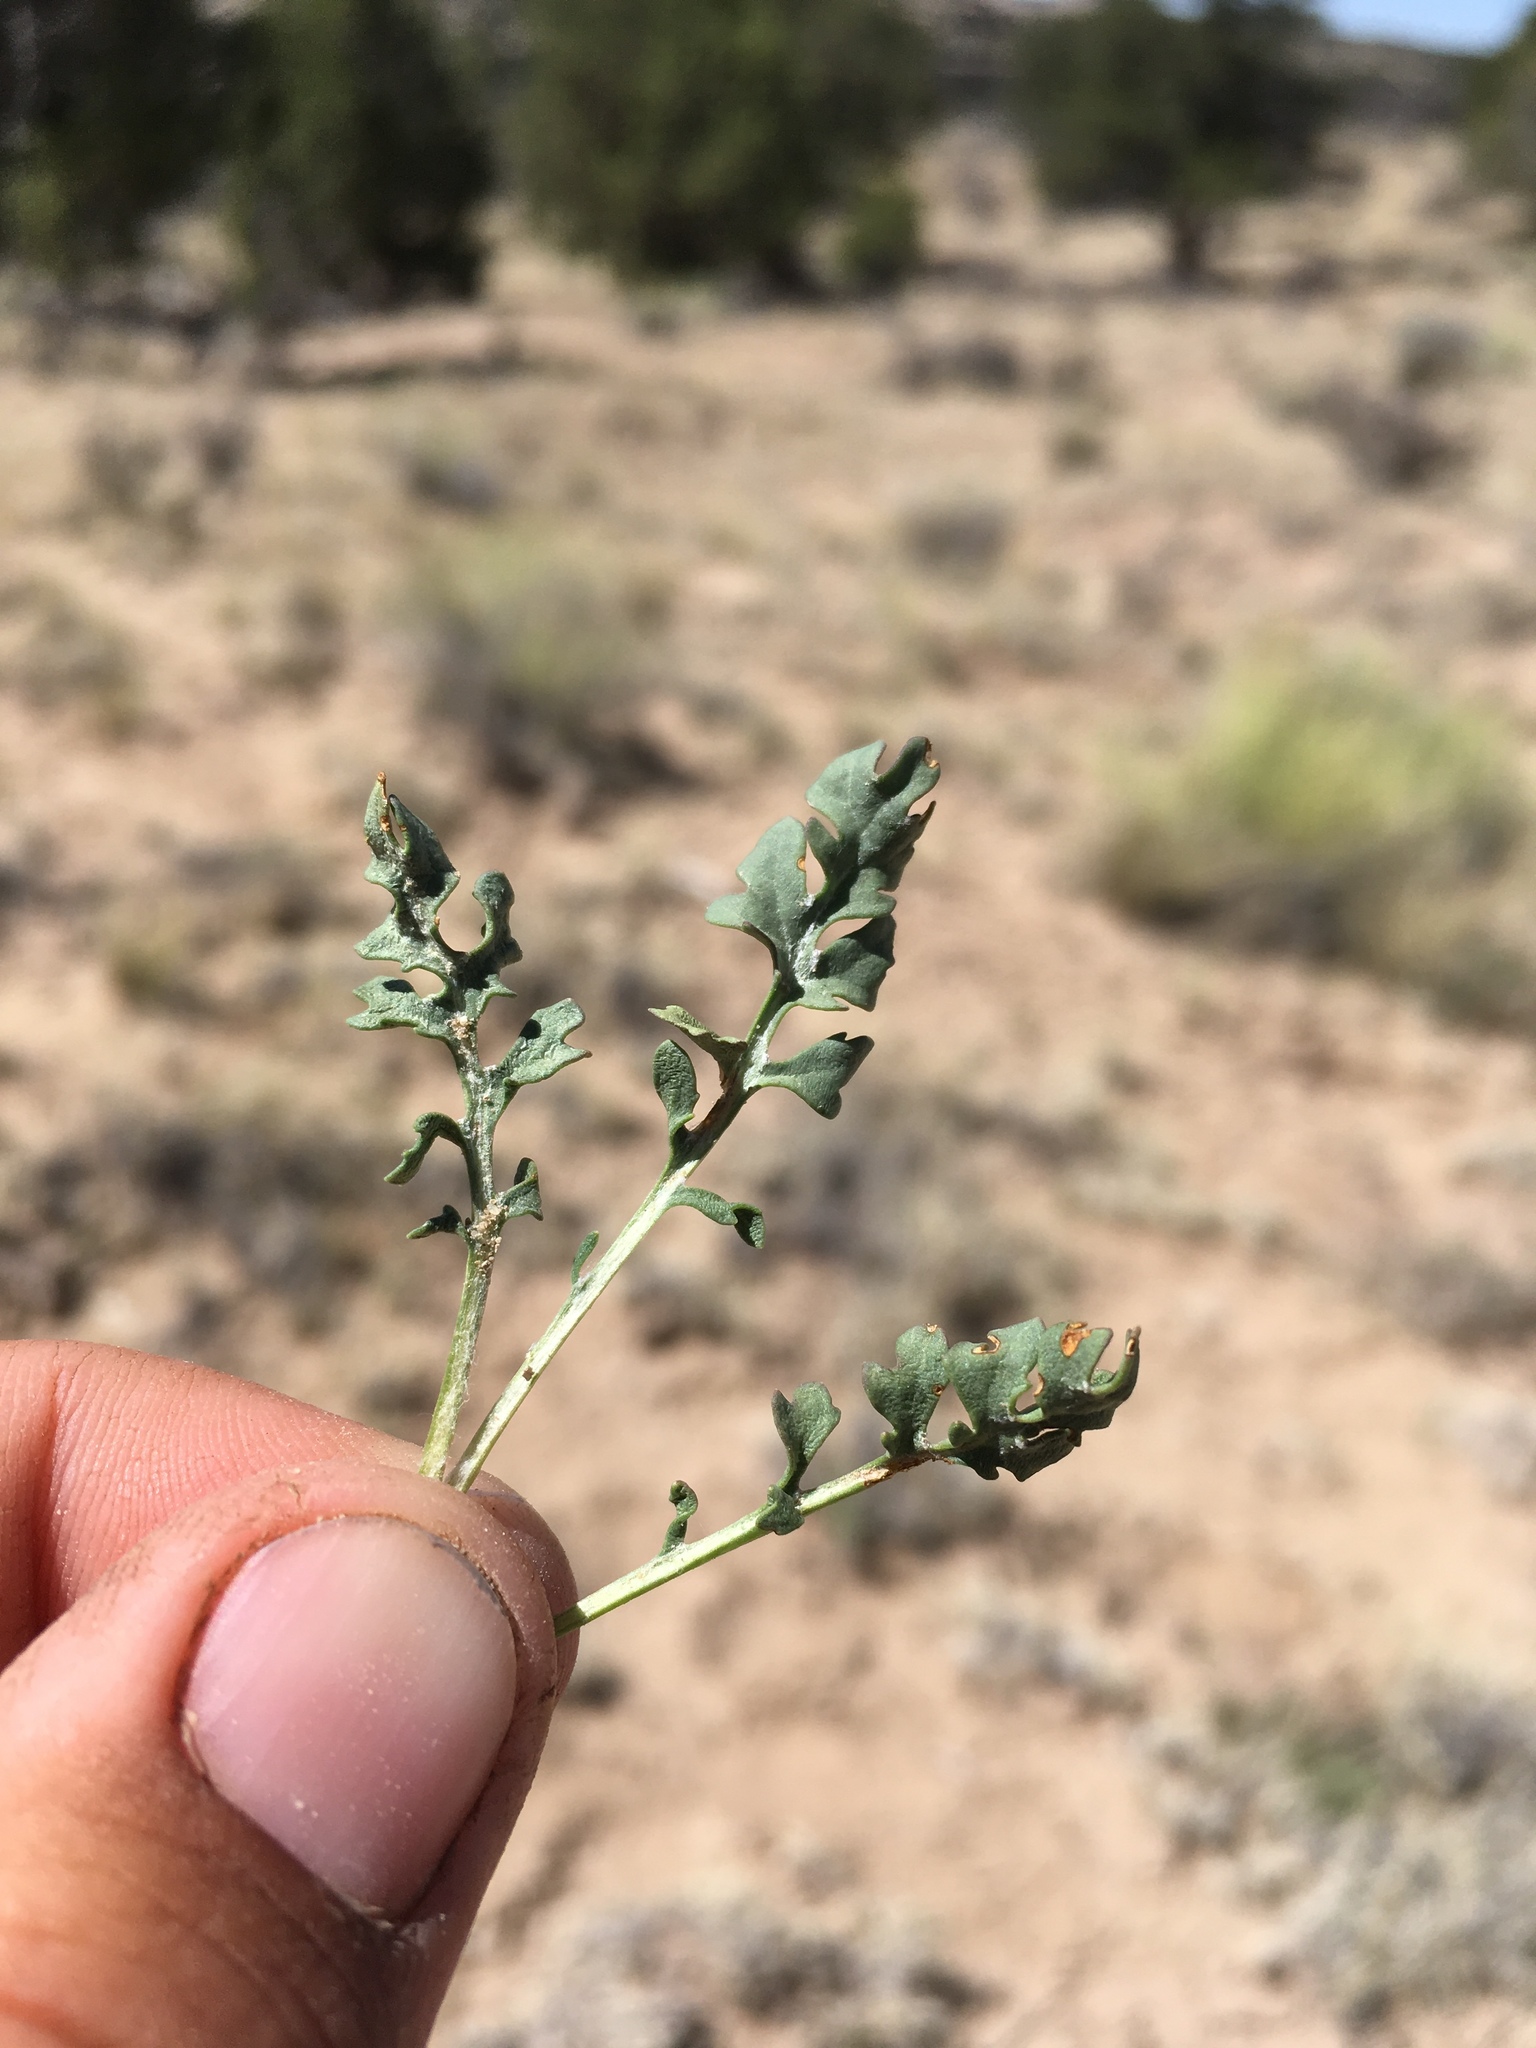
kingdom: Plantae
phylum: Tracheophyta
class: Magnoliopsida
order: Asterales
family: Asteraceae
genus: Packera
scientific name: Packera multilobata
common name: Lobe-leaf groundsel
